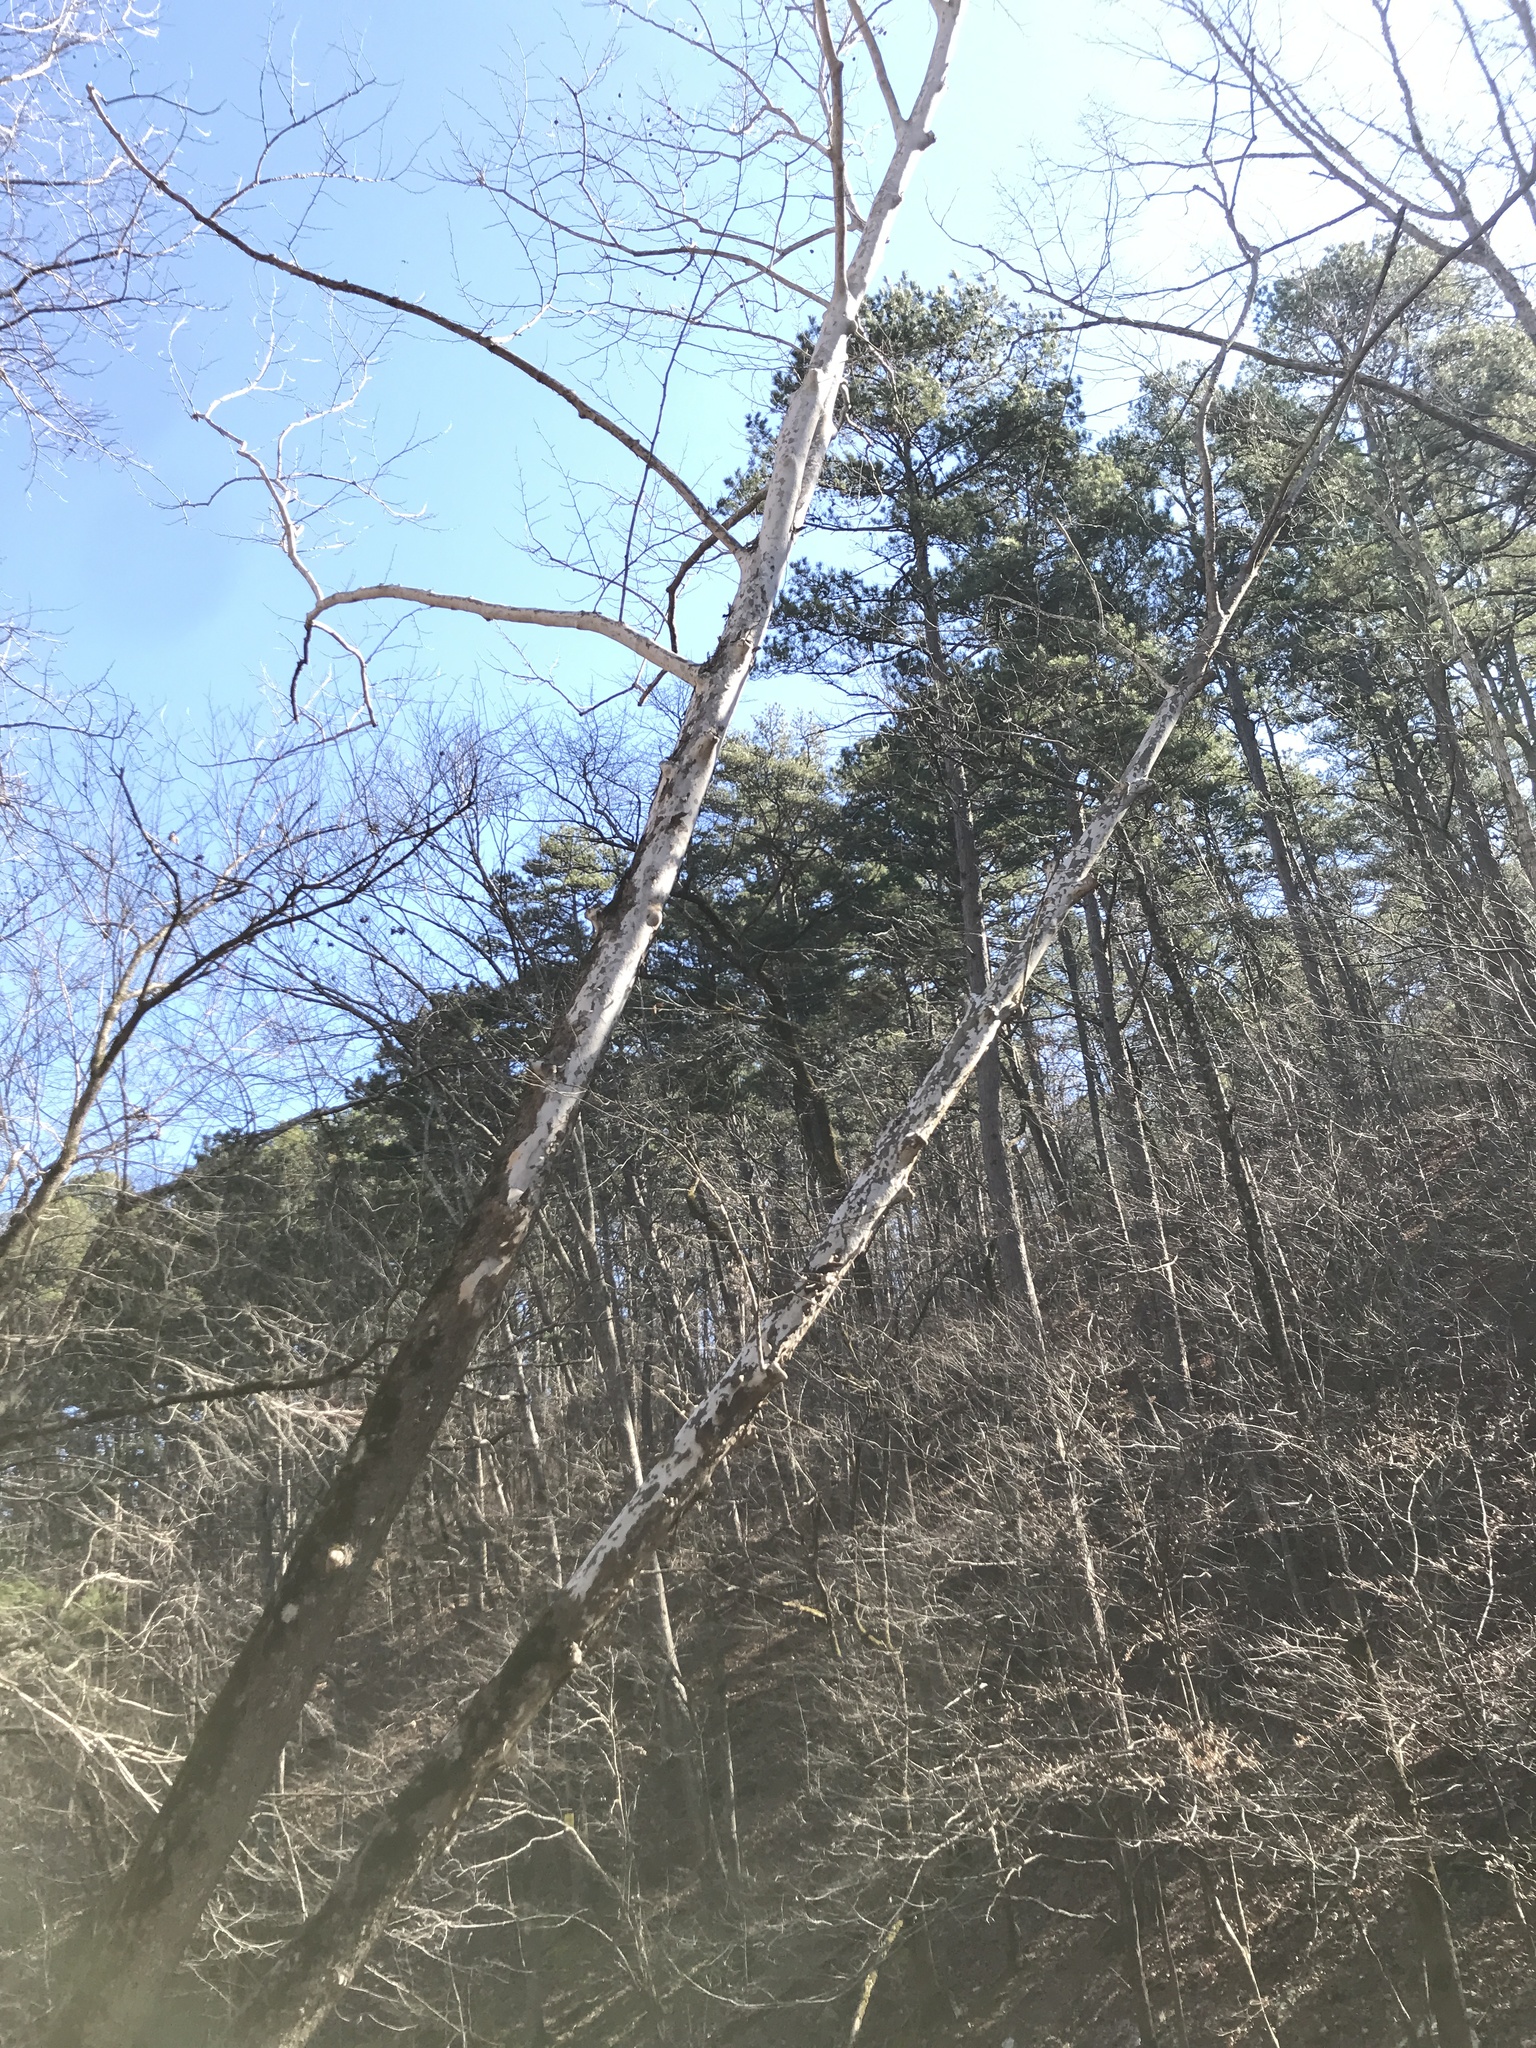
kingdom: Plantae
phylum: Tracheophyta
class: Magnoliopsida
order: Proteales
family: Platanaceae
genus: Platanus
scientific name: Platanus occidentalis
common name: American sycamore
